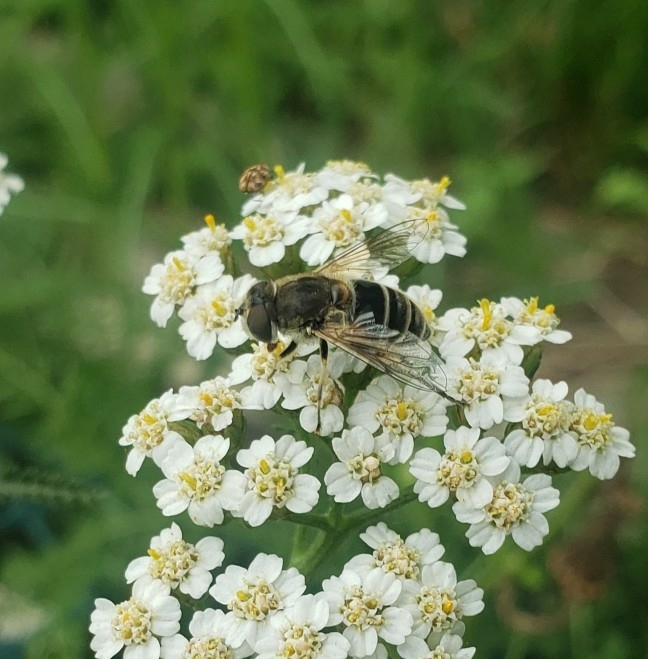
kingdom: Animalia
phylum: Arthropoda
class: Insecta
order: Diptera
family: Syrphidae
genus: Eristalis
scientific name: Eristalis arbustorum
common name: Hover fly
